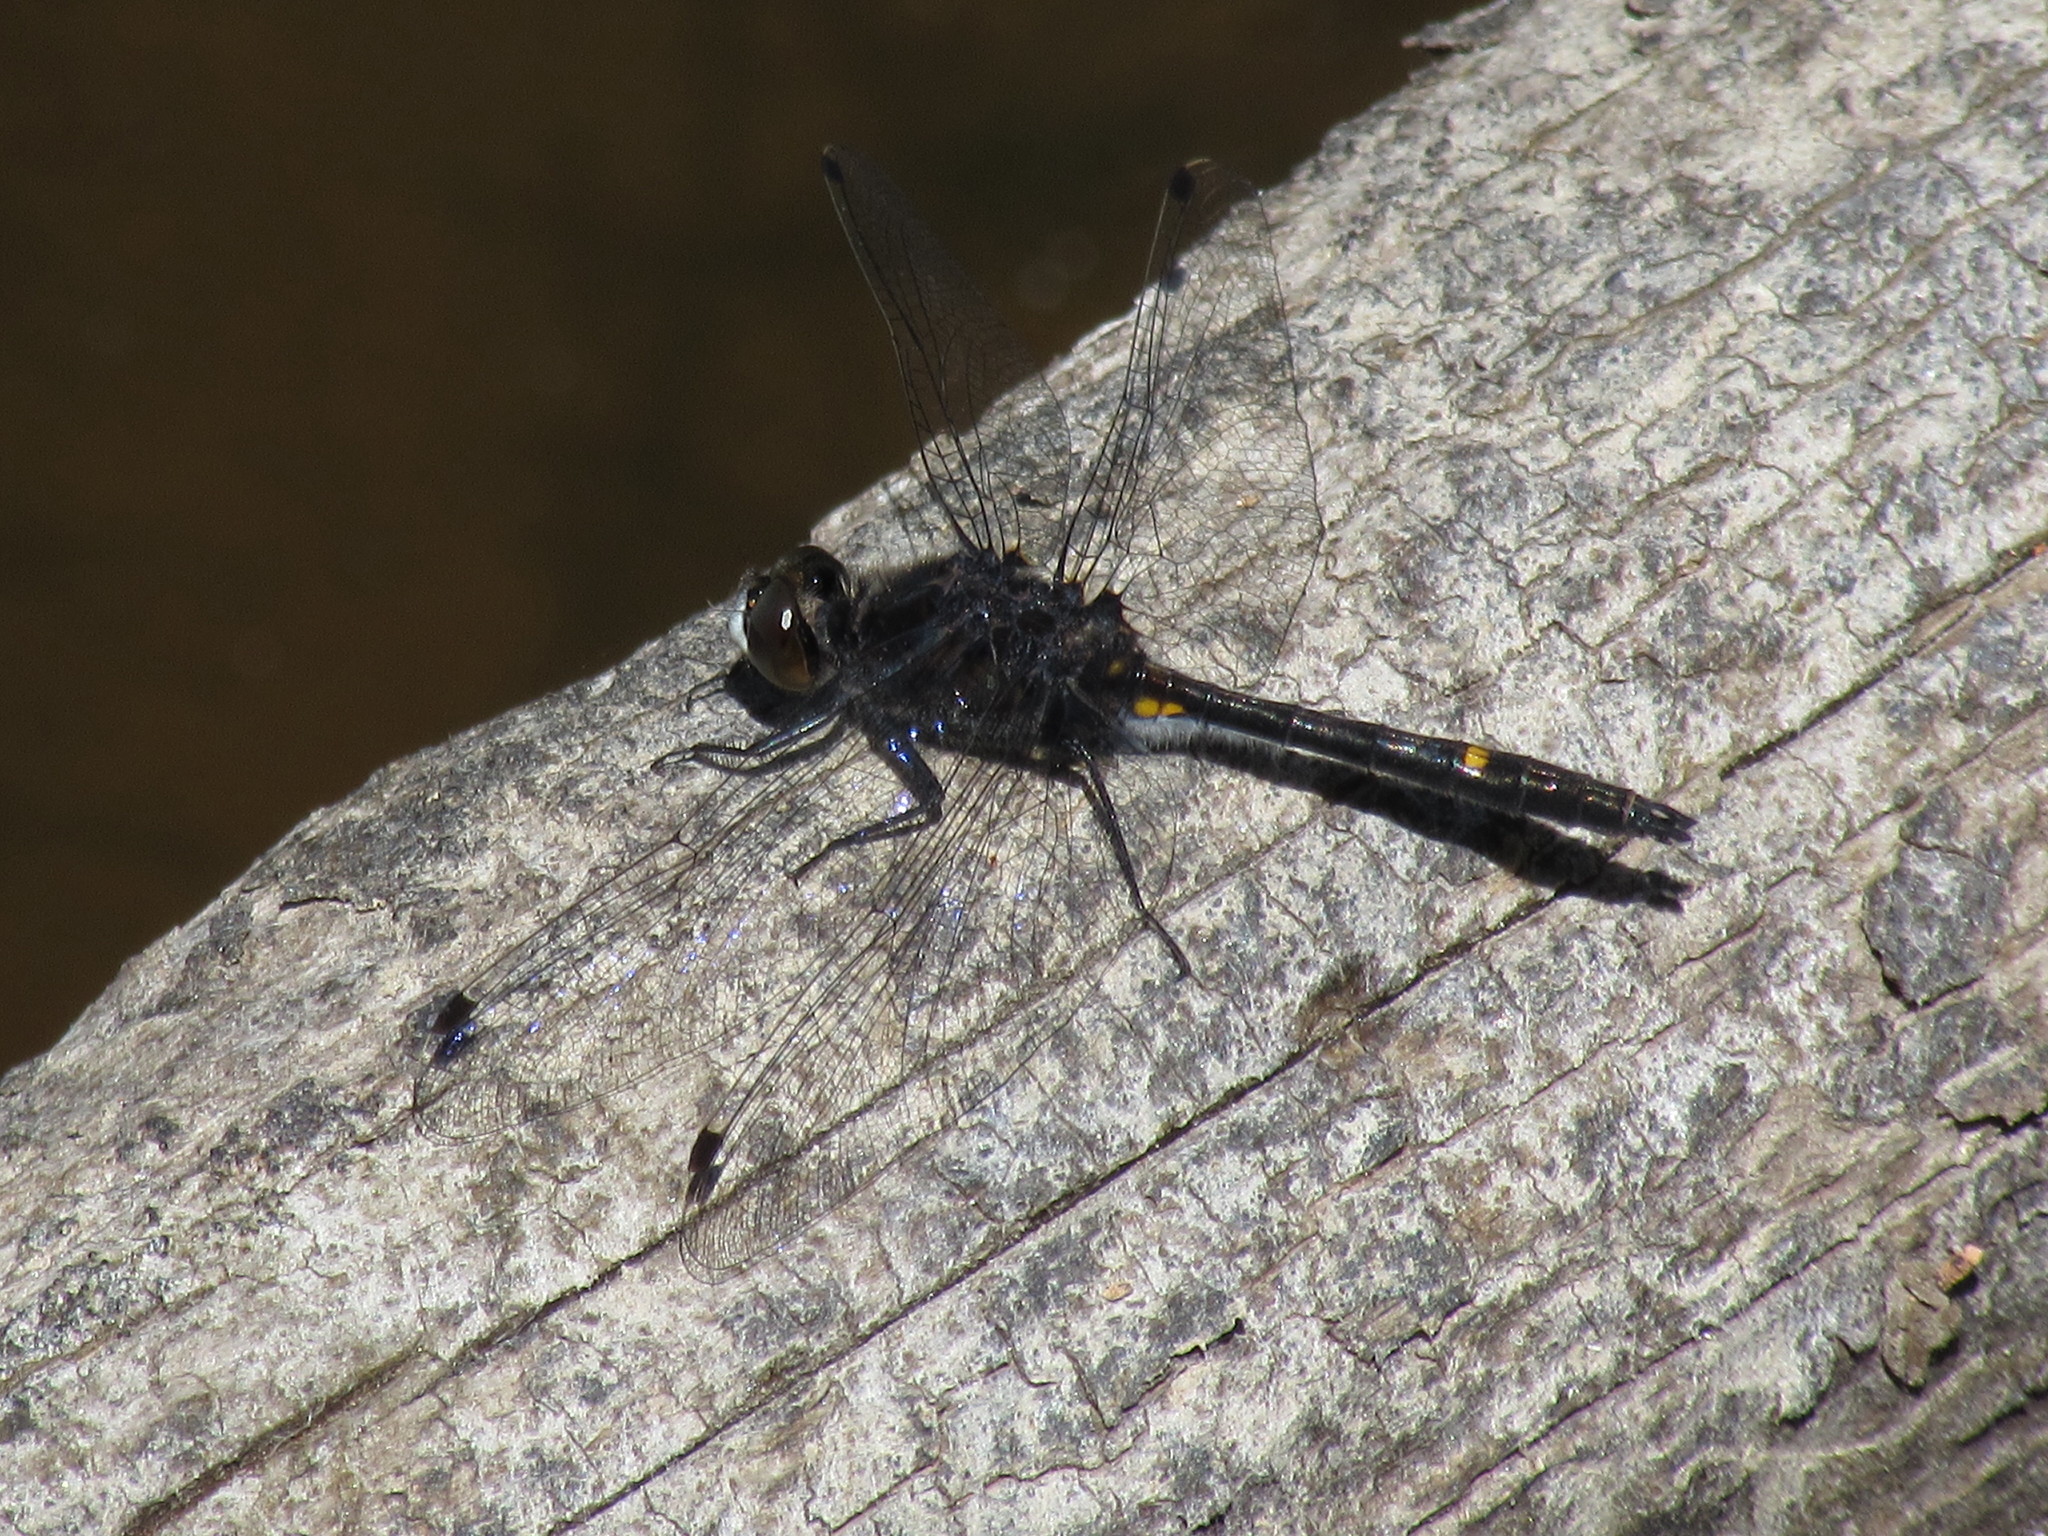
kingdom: Animalia
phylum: Arthropoda
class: Insecta
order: Odonata
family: Libellulidae
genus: Leucorrhinia
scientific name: Leucorrhinia intacta
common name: Dot-tailed whiteface
